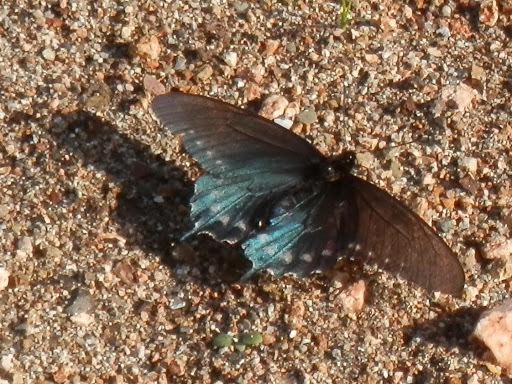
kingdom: Animalia
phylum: Arthropoda
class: Insecta
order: Lepidoptera
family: Papilionidae
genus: Battus
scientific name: Battus philenor
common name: Pipevine swallowtail
